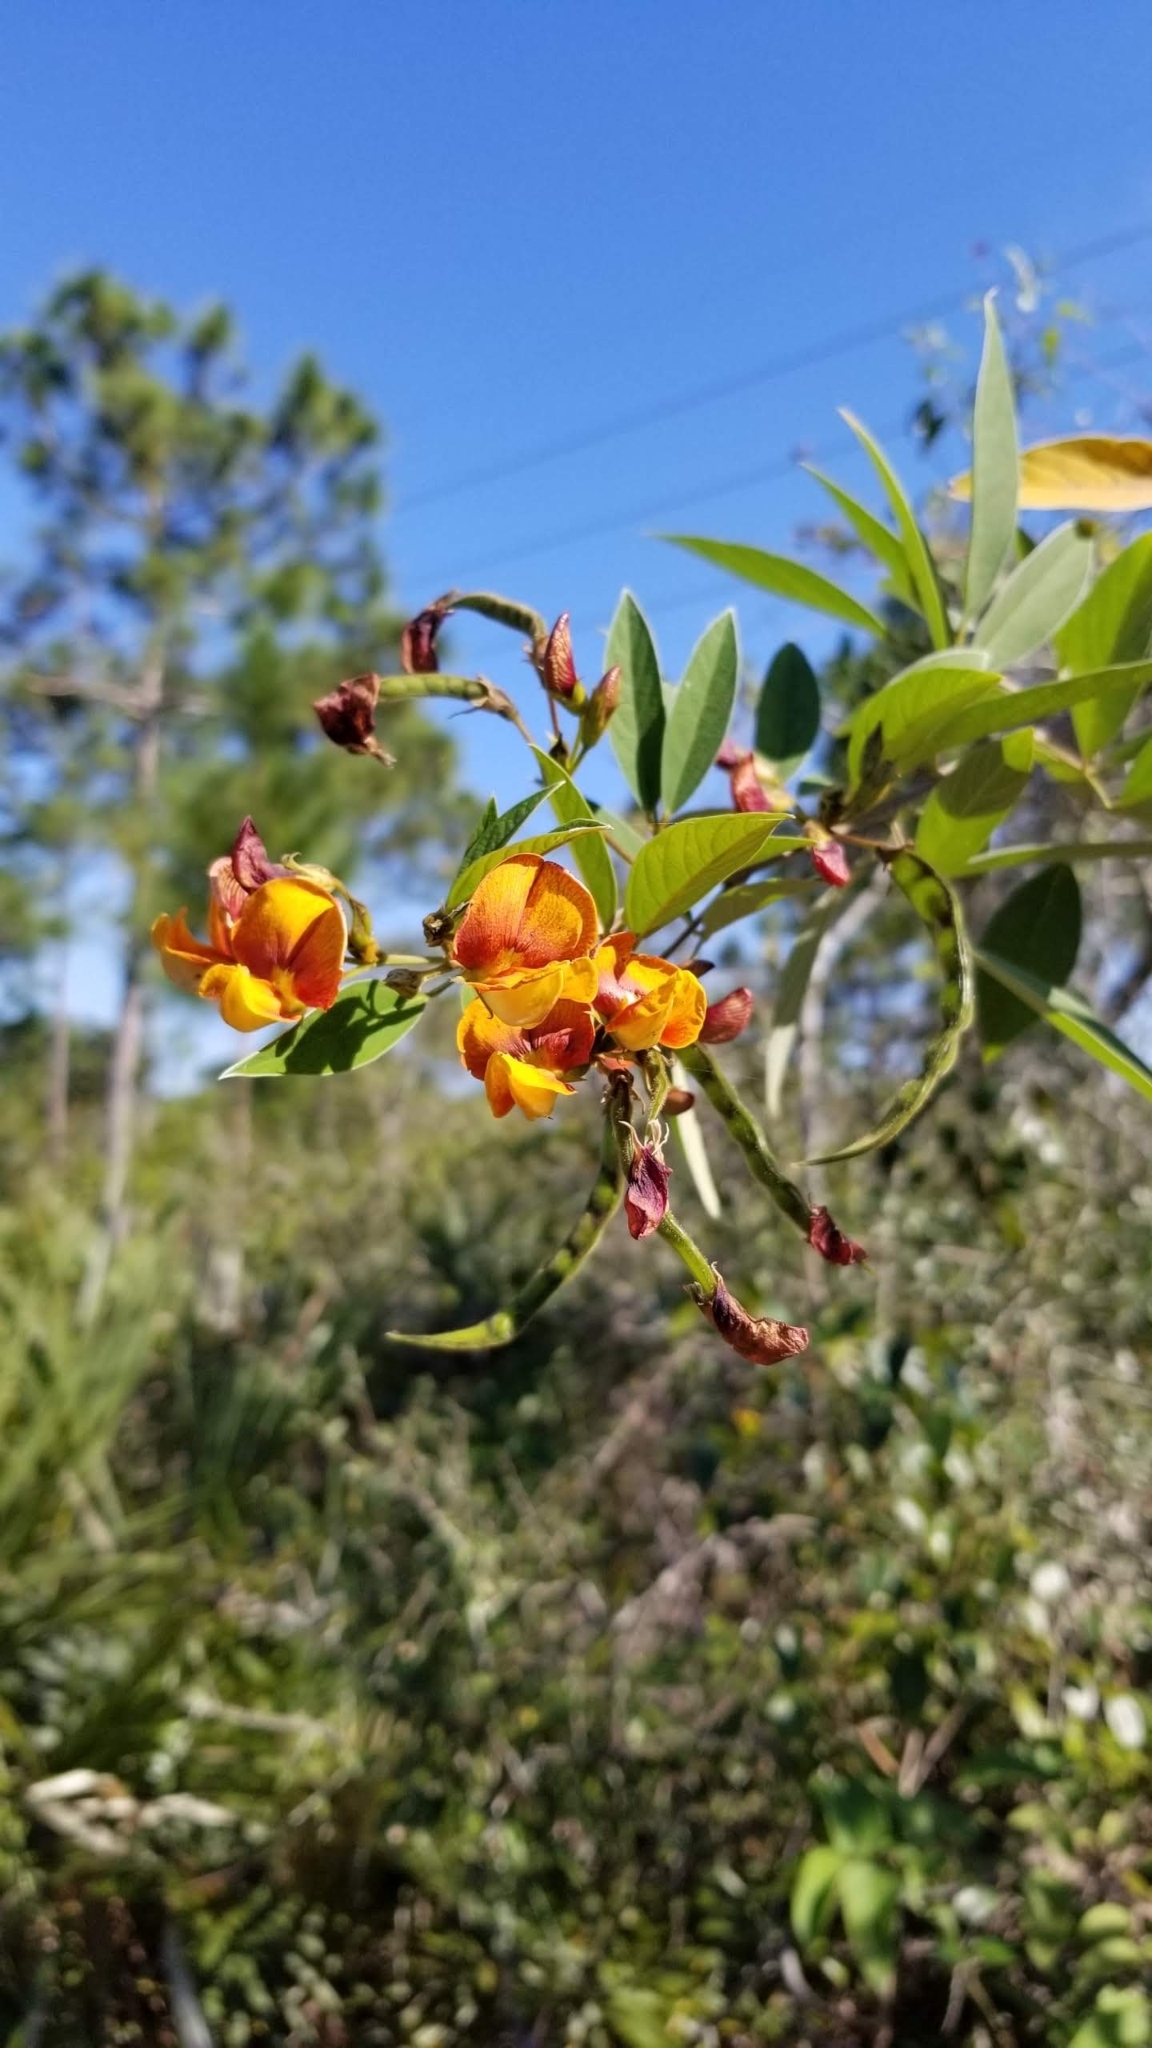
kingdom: Plantae
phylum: Tracheophyta
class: Magnoliopsida
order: Fabales
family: Fabaceae
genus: Cajanus
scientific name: Cajanus cajan
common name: Pigeonpea
